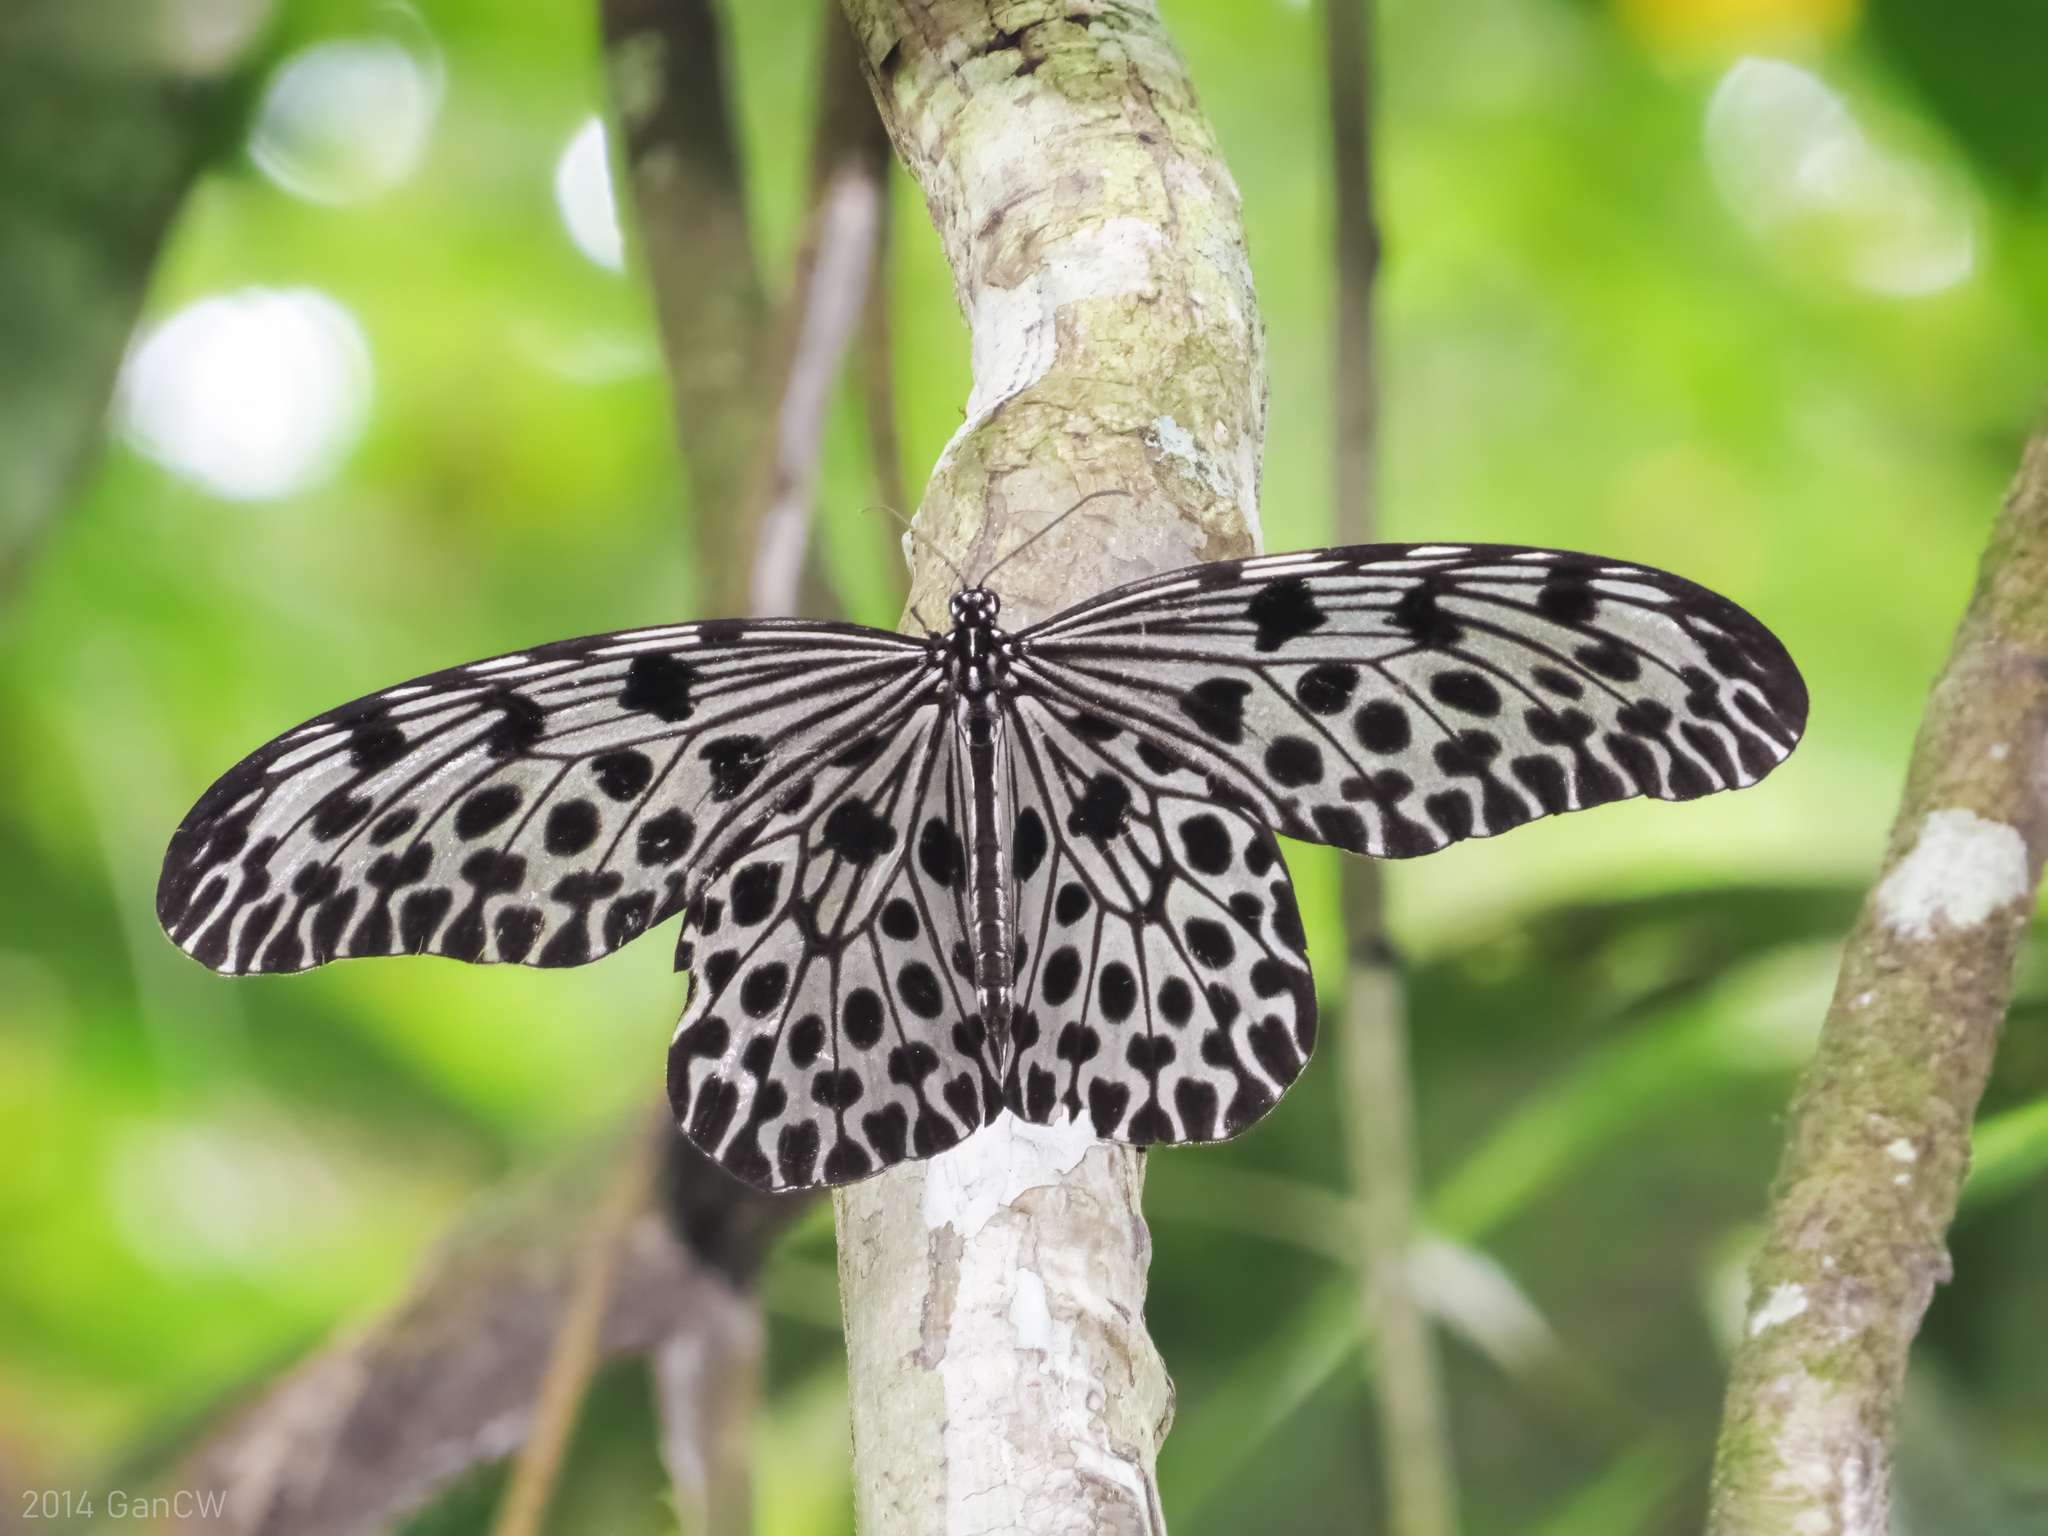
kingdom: Animalia
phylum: Arthropoda
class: Insecta
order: Lepidoptera
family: Nymphalidae
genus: Idea
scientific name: Idea lynceus
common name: Giant tree nymph
